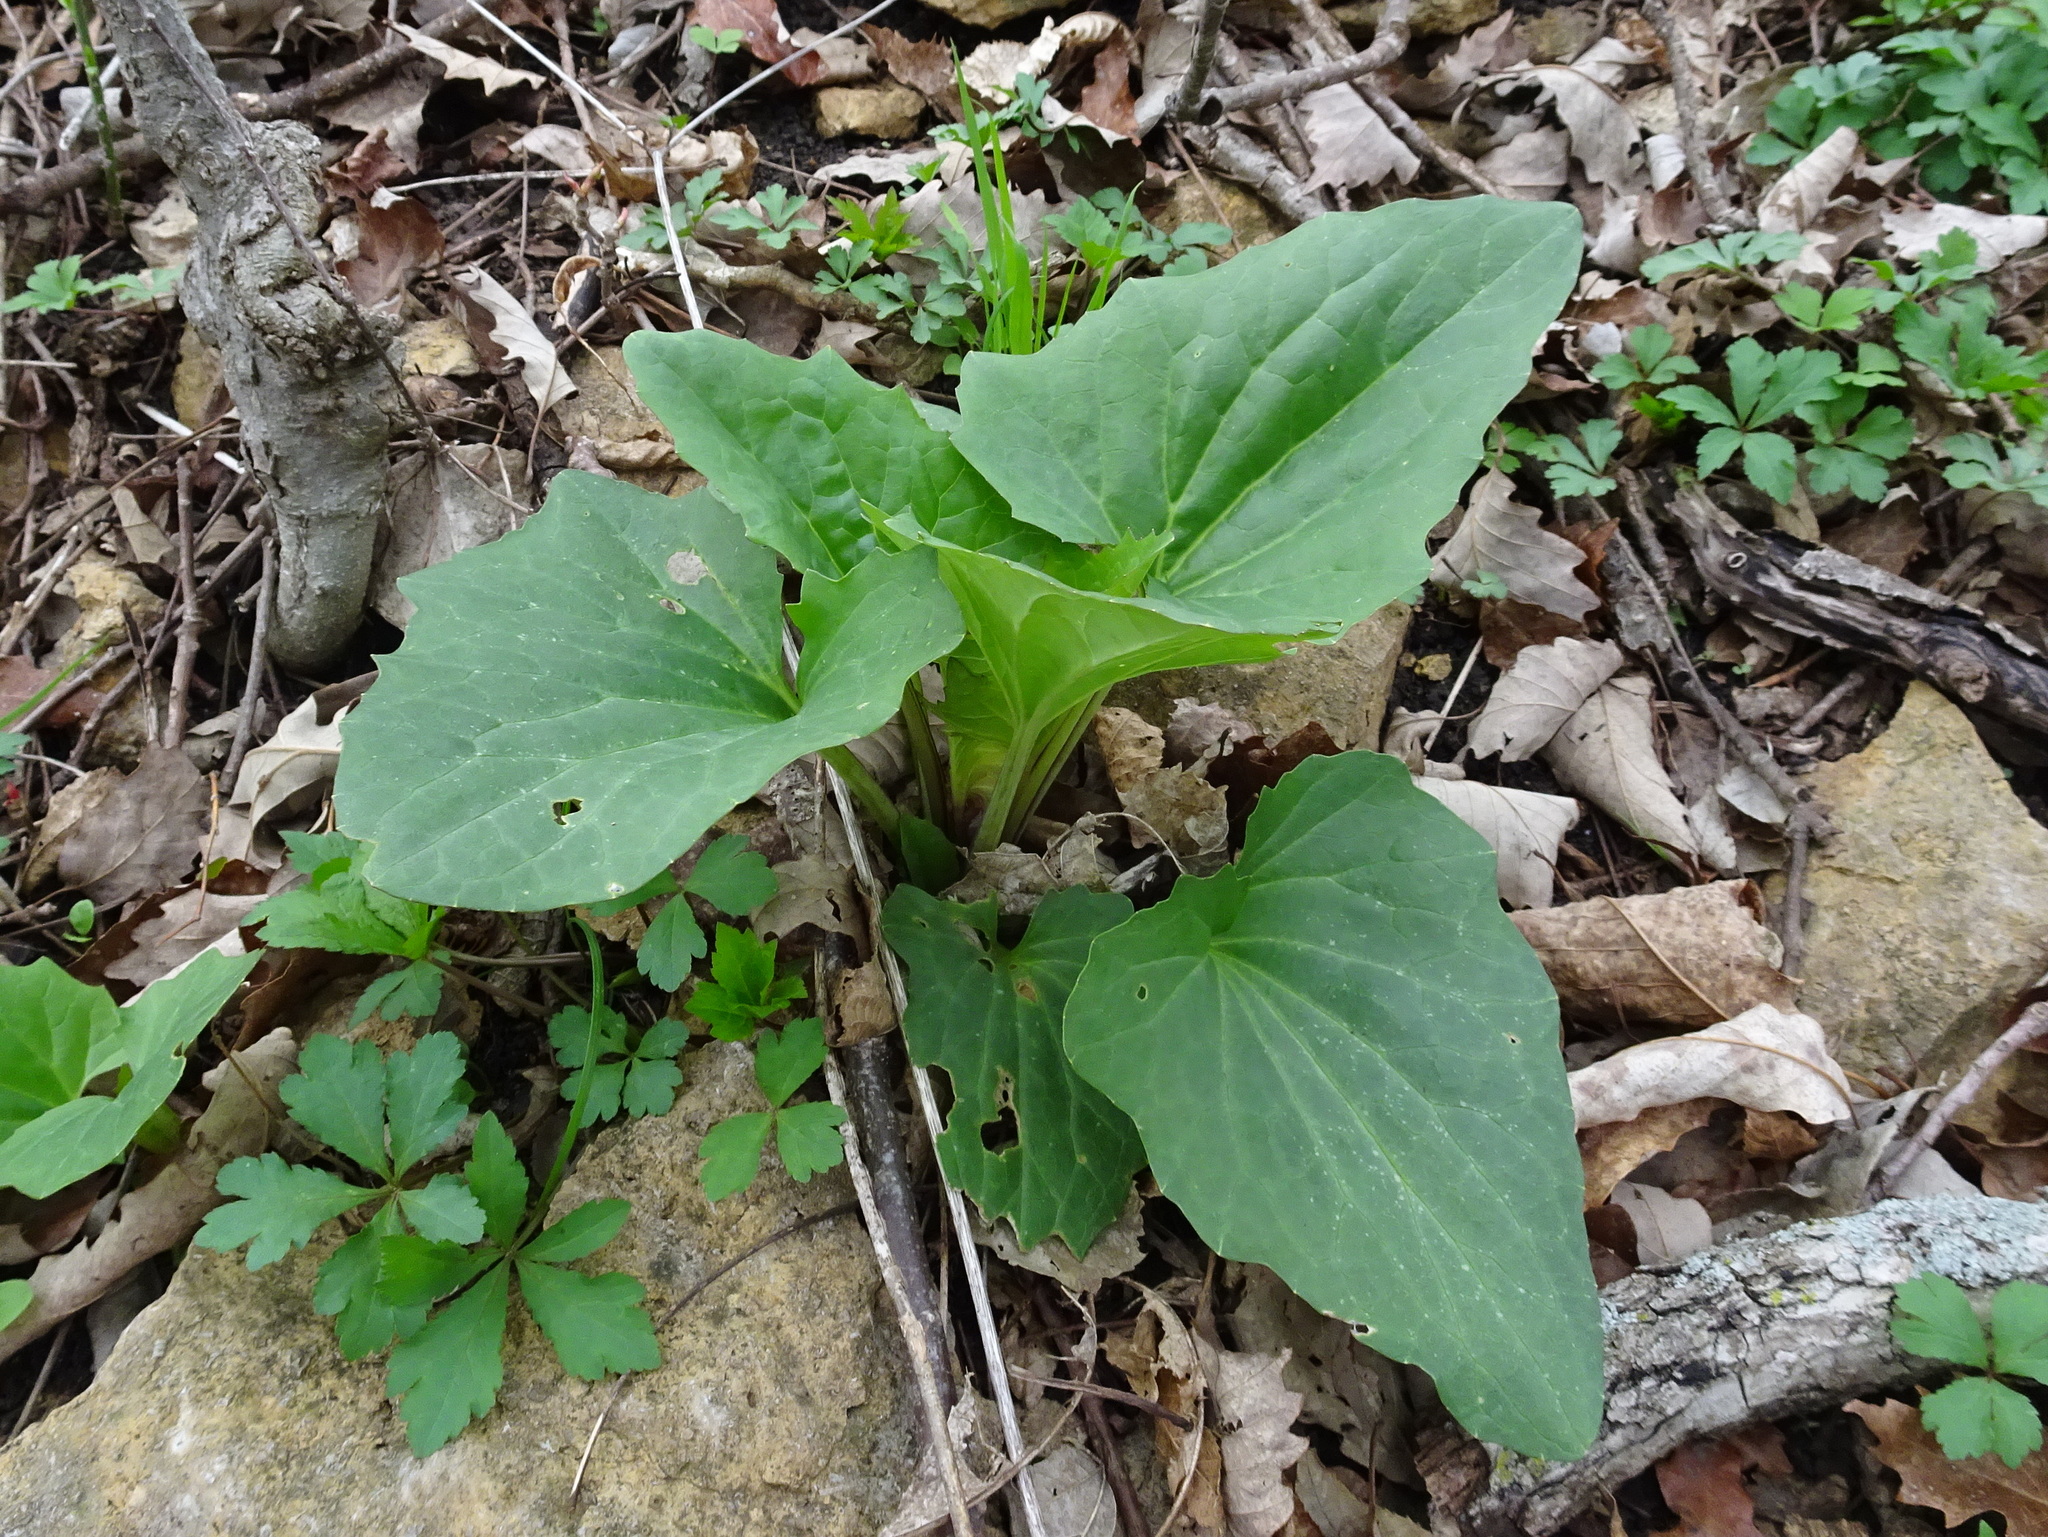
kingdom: Plantae
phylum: Tracheophyta
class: Magnoliopsida
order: Asterales
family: Asteraceae
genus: Arnoglossum
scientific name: Arnoglossum atriplicifolium
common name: Pale indian-plantain
